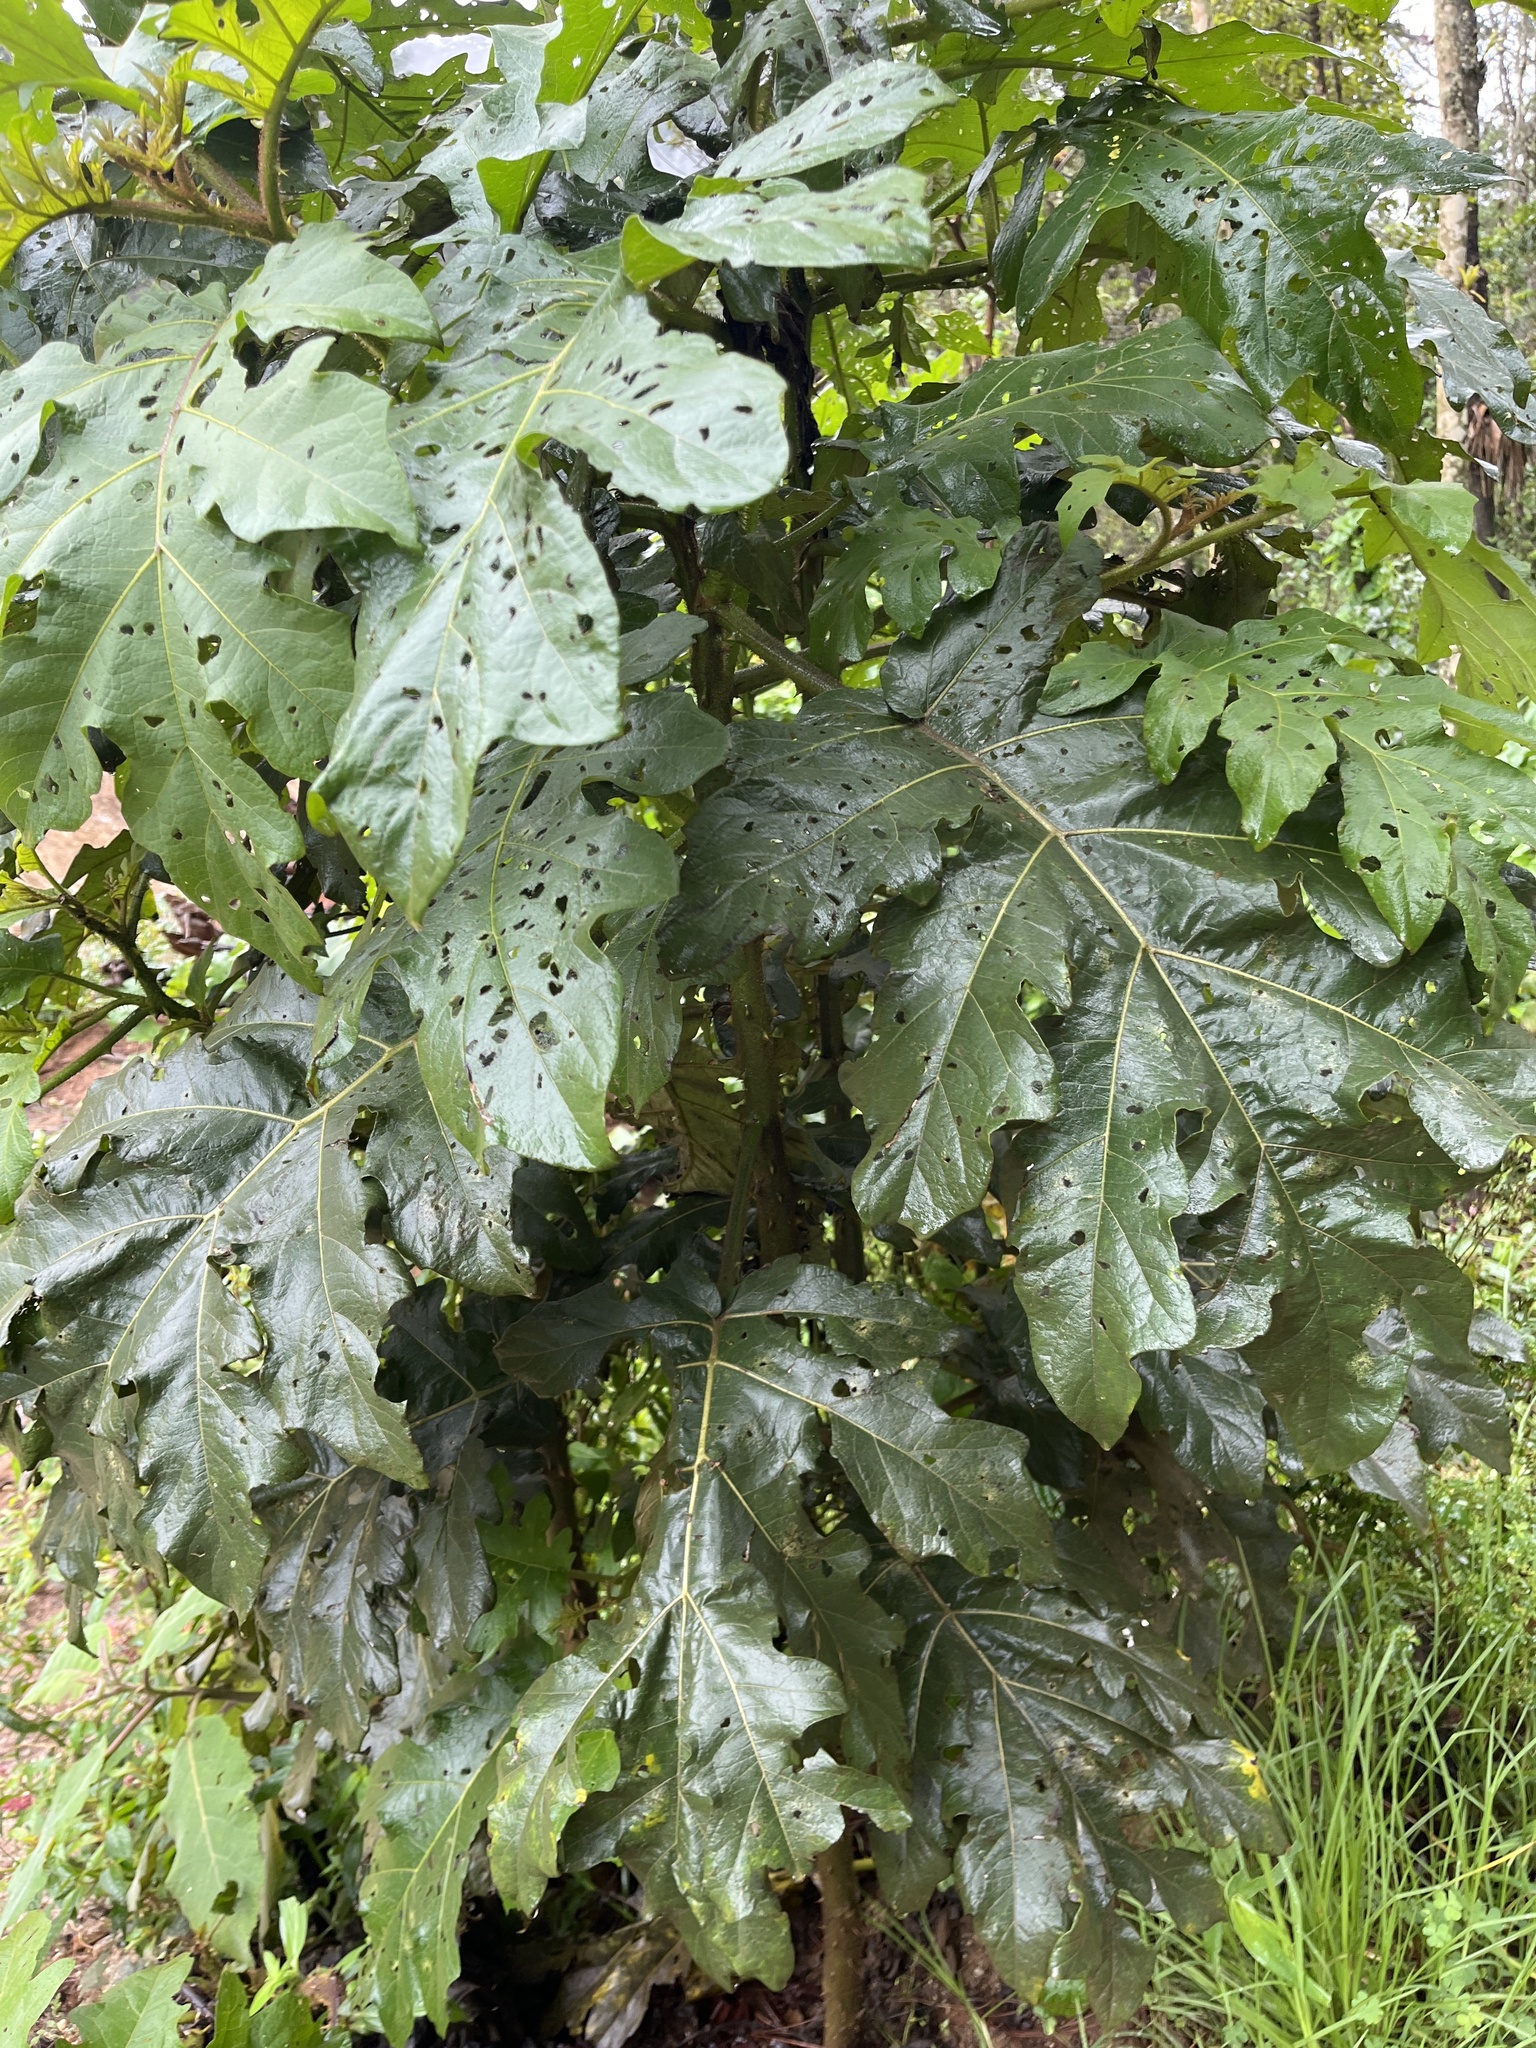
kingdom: Plantae
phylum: Tracheophyta
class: Magnoliopsida
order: Solanales
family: Solanaceae
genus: Solanum
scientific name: Solanum chrysotrichum
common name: Nightshade
